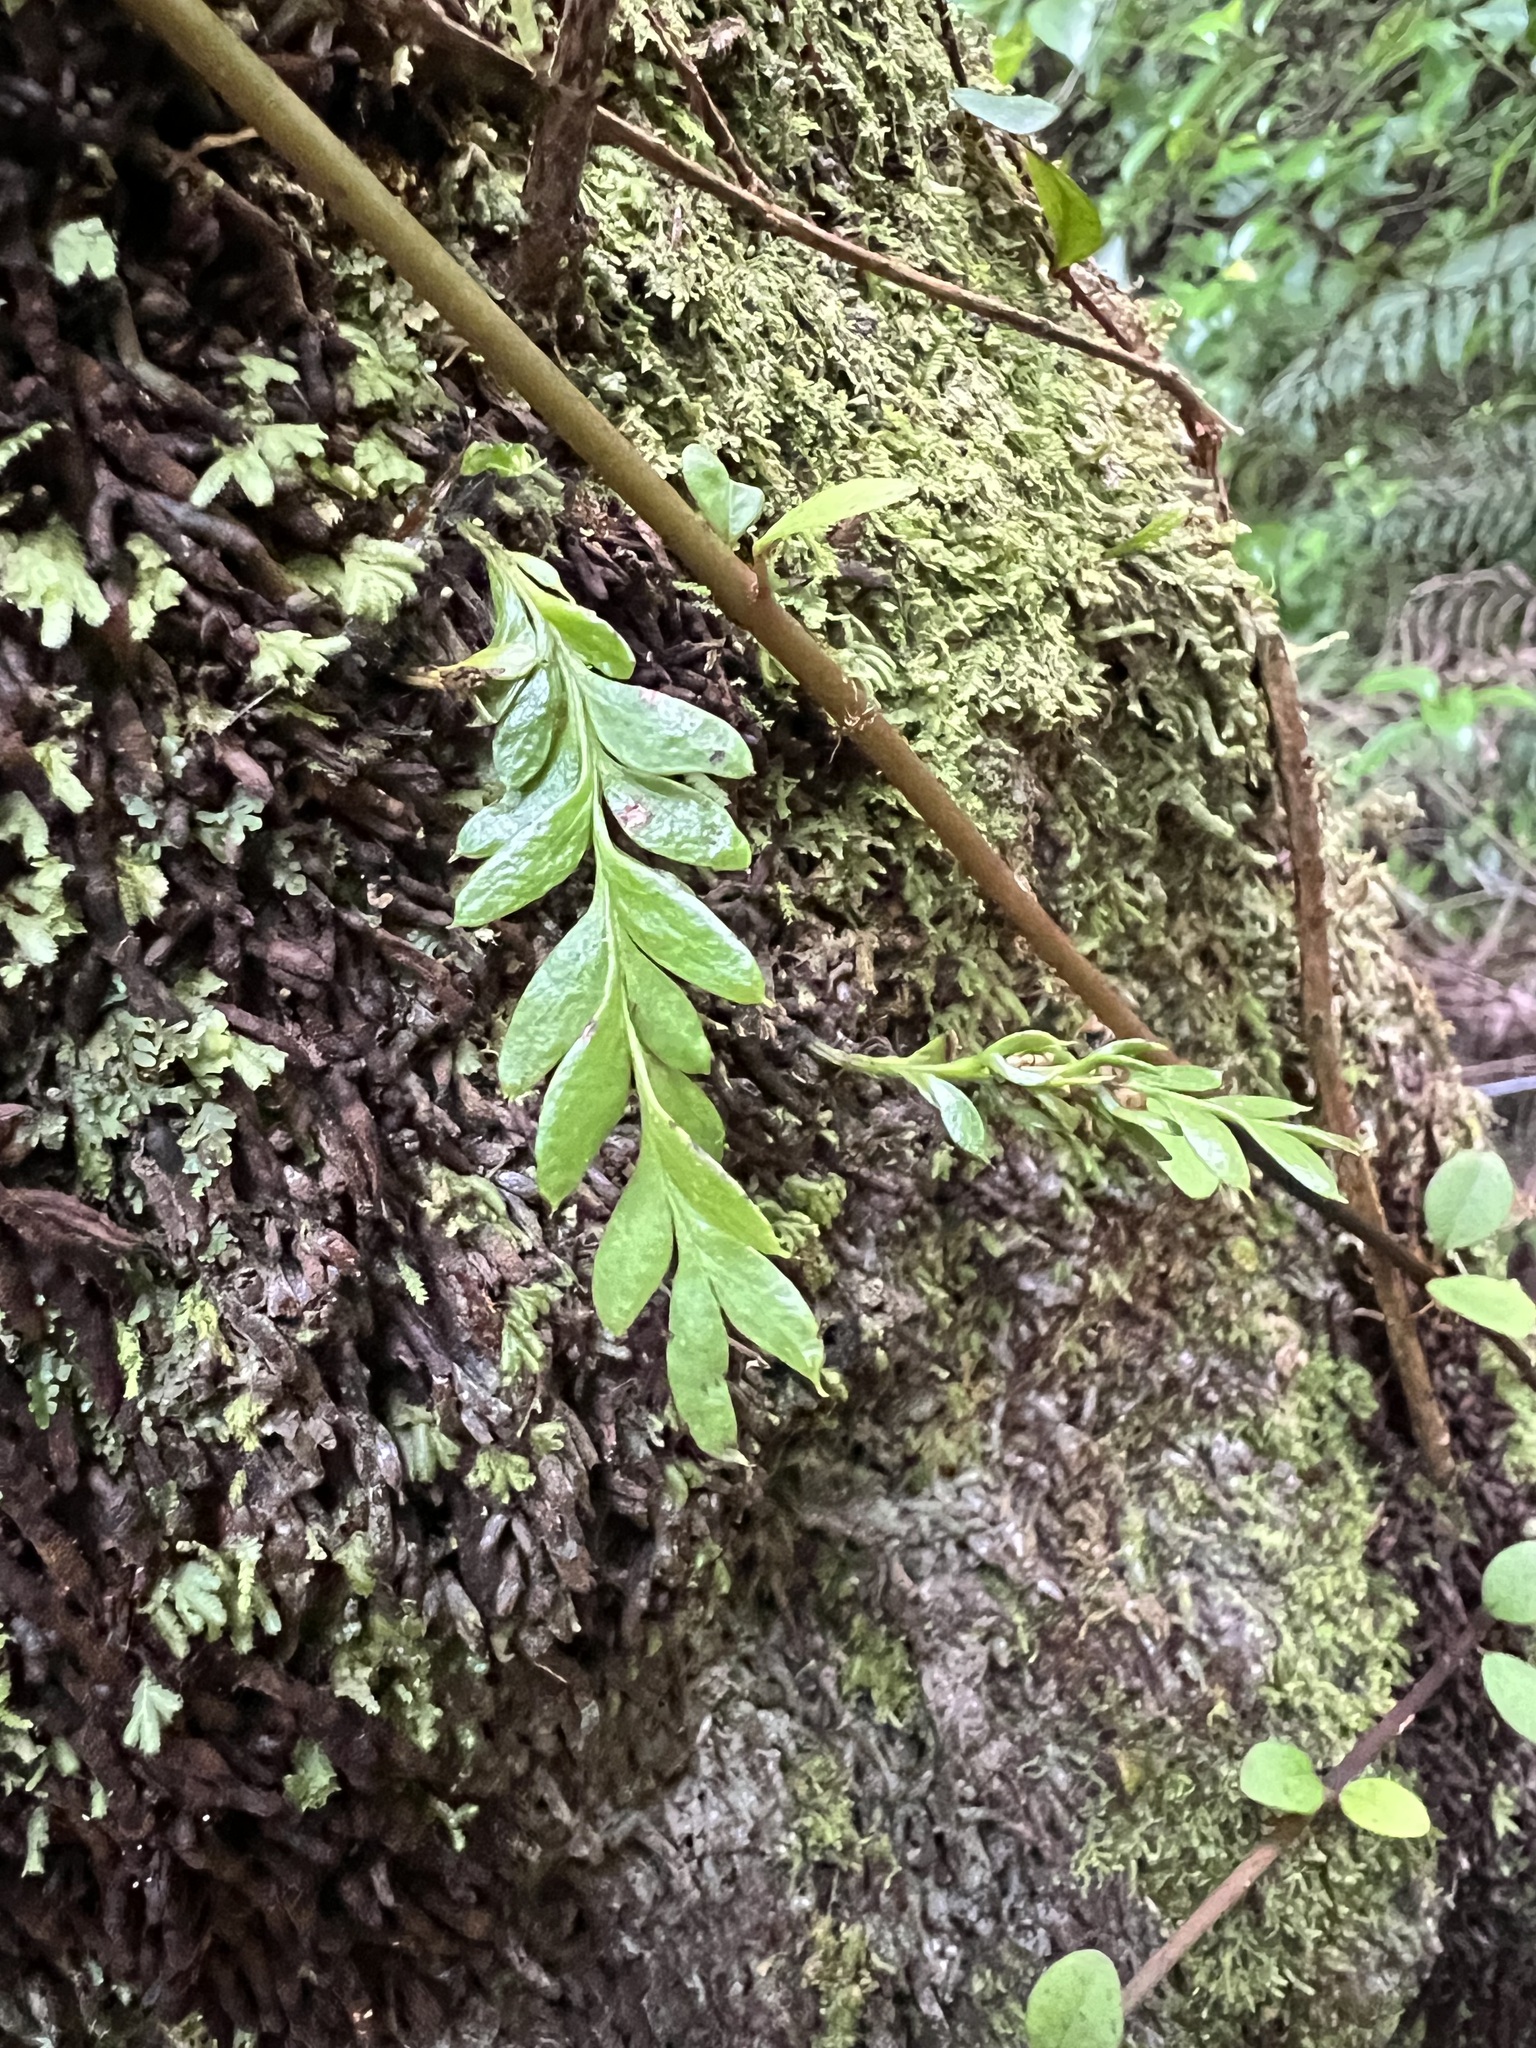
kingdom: Plantae
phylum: Tracheophyta
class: Polypodiopsida
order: Psilotales
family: Psilotaceae
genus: Tmesipteris
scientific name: Tmesipteris lanceolata
